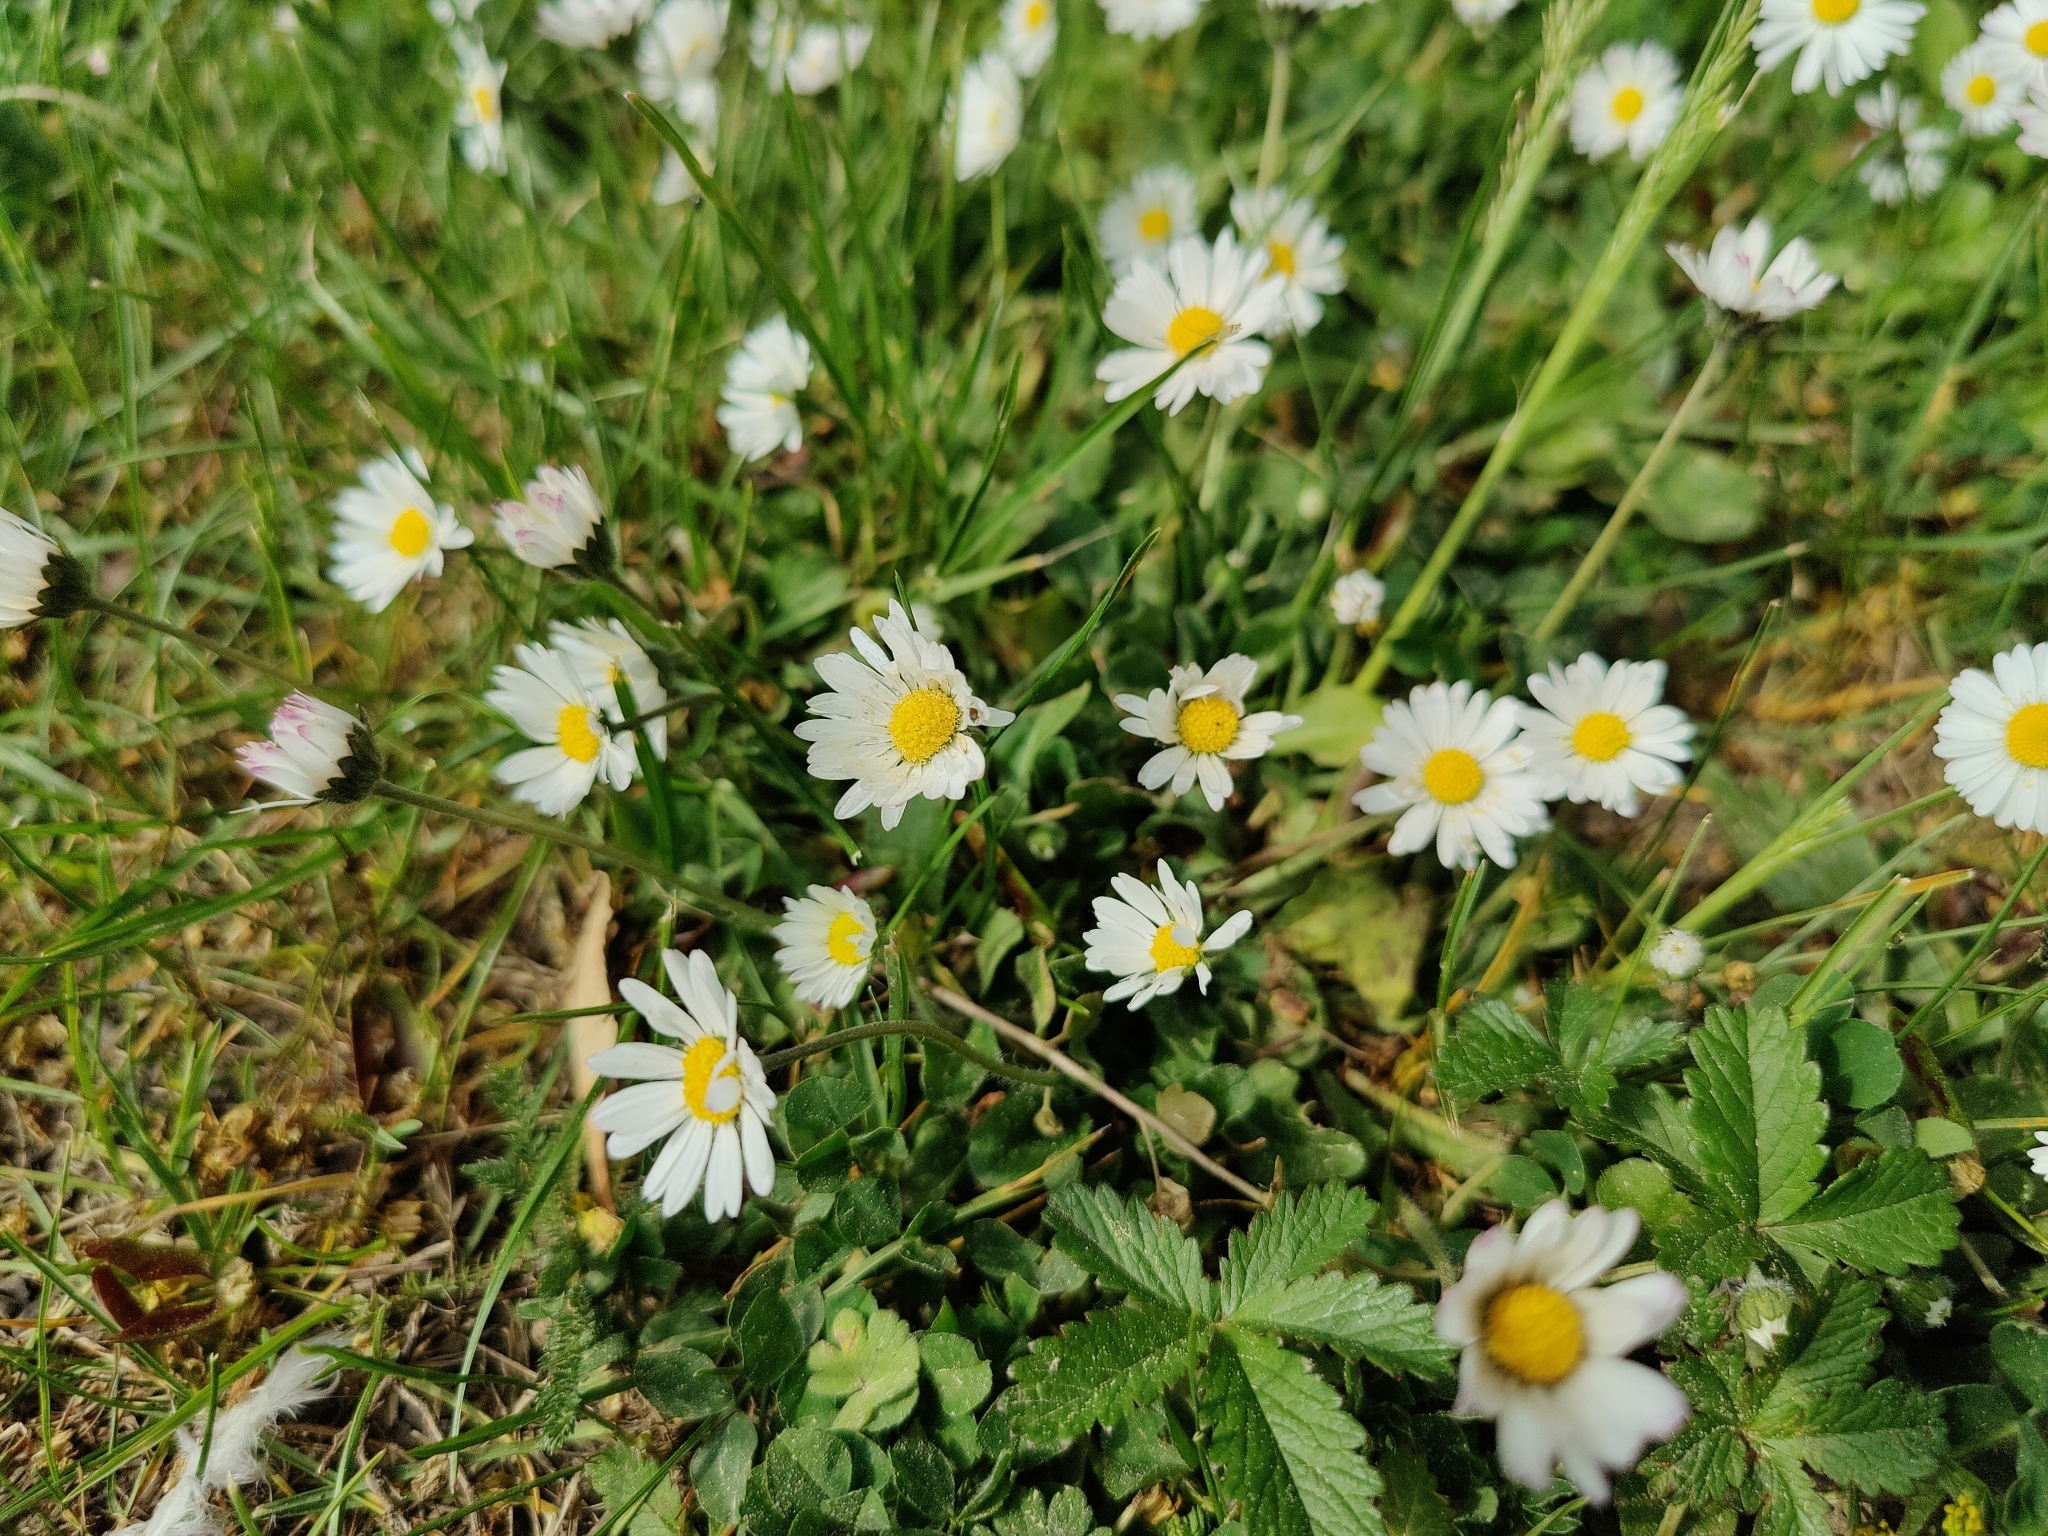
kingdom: Plantae
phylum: Tracheophyta
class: Magnoliopsida
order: Asterales
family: Asteraceae
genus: Bellis
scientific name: Bellis perennis
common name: Lawndaisy
